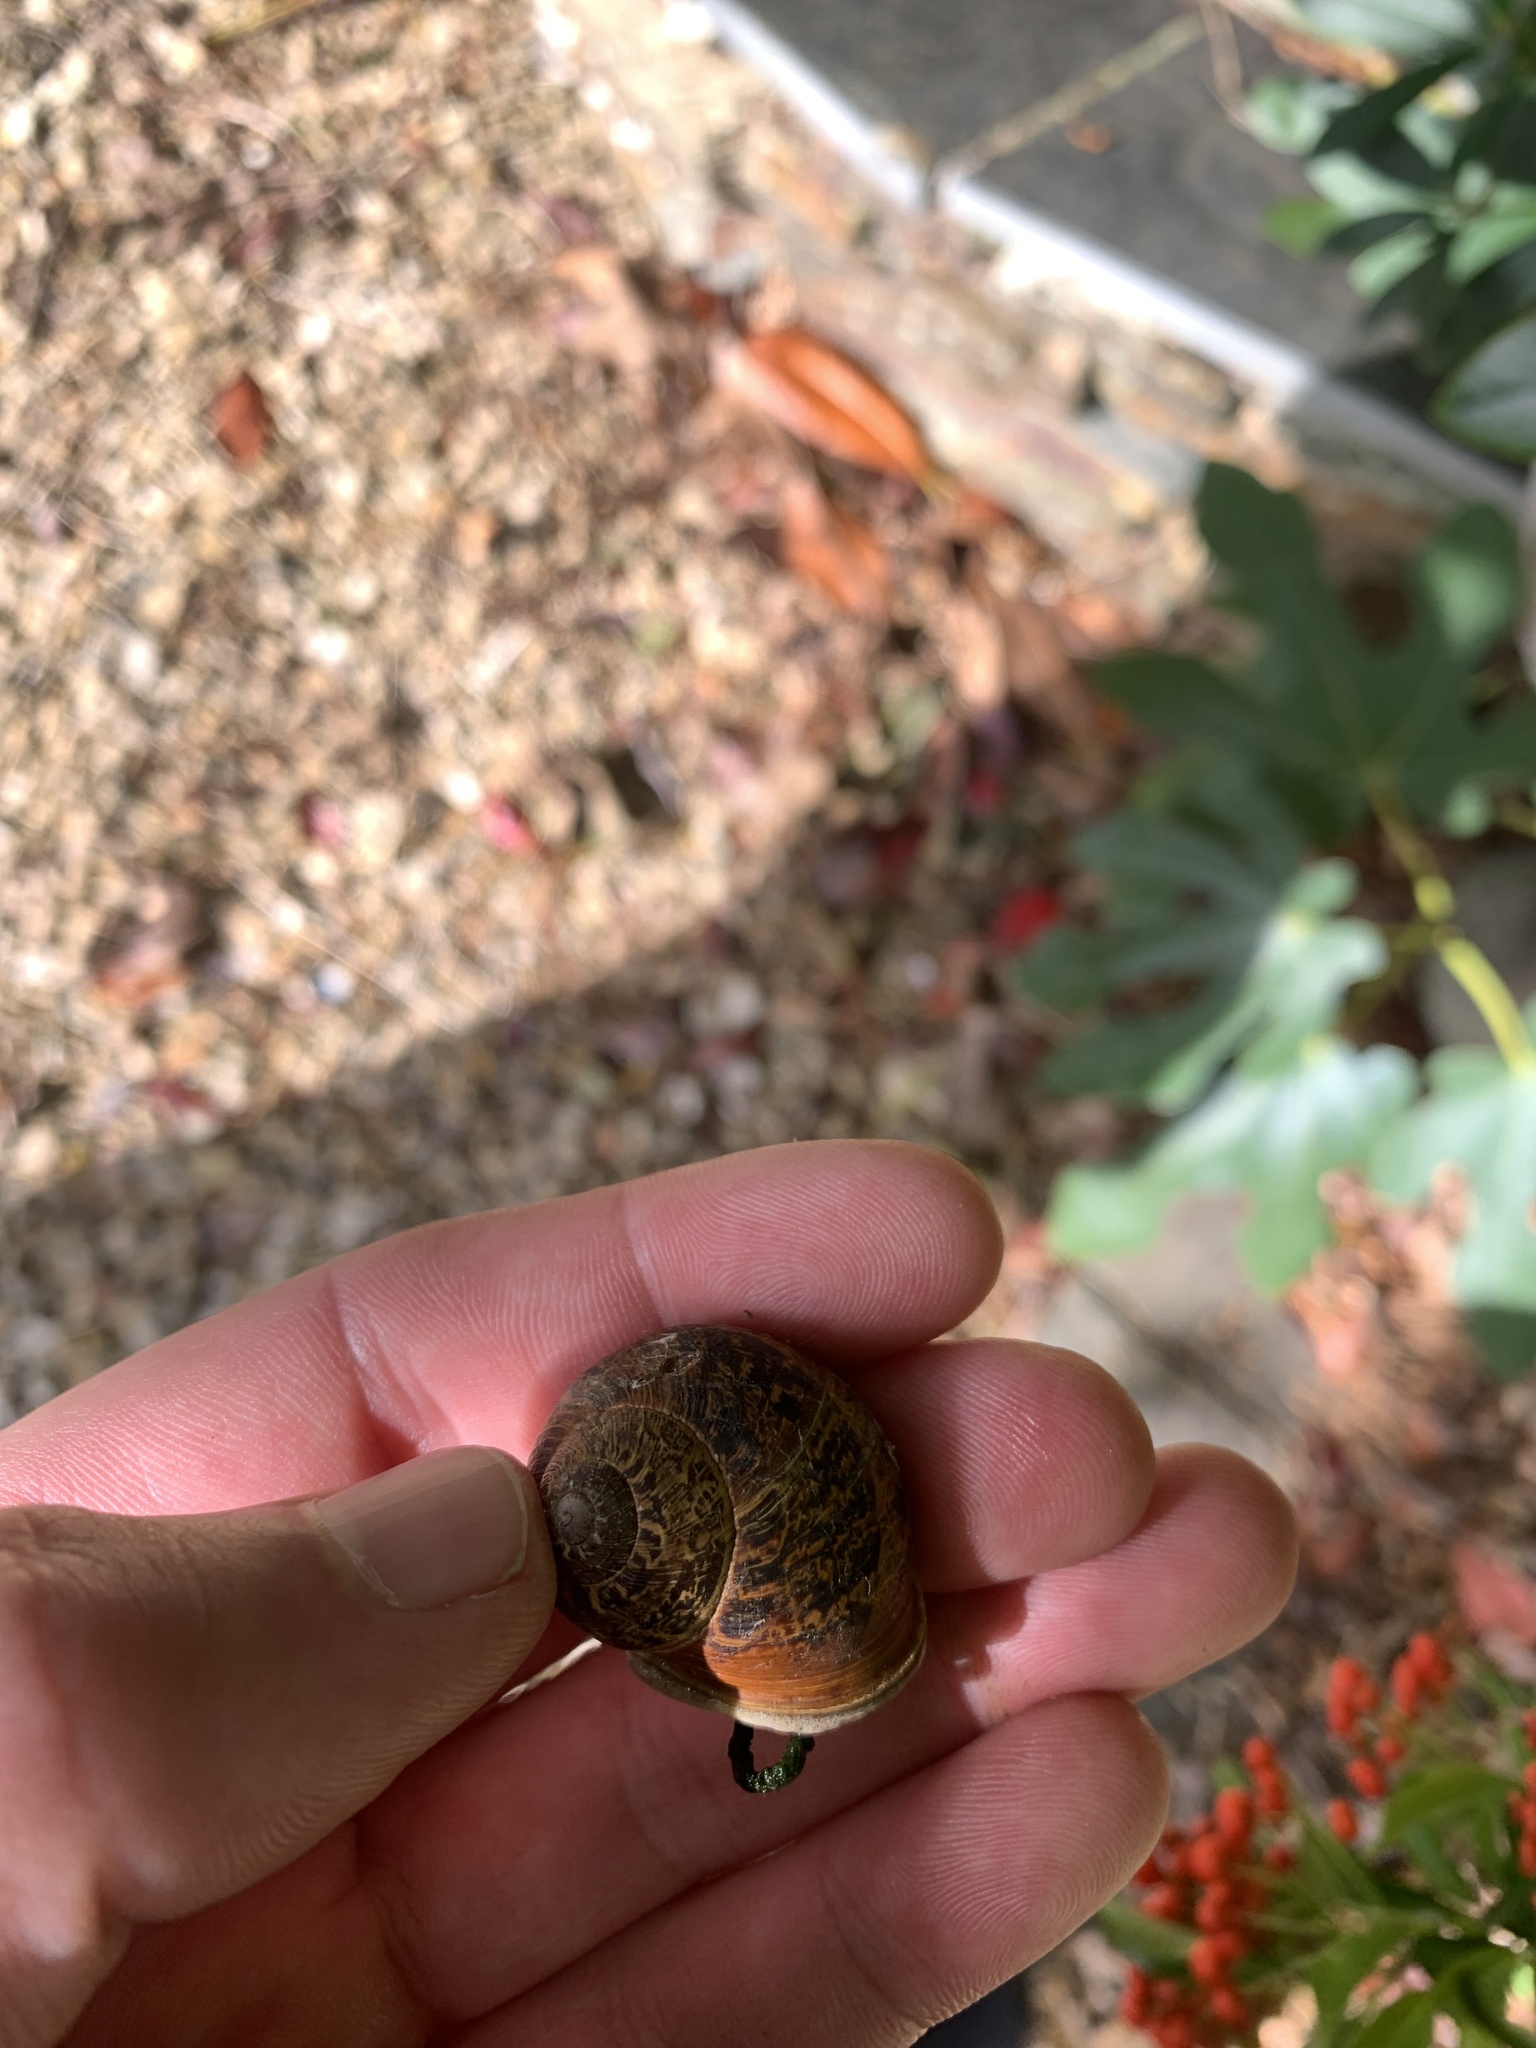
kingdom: Animalia
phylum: Mollusca
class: Gastropoda
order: Stylommatophora
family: Helicidae
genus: Cornu
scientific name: Cornu aspersum
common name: Brown garden snail
